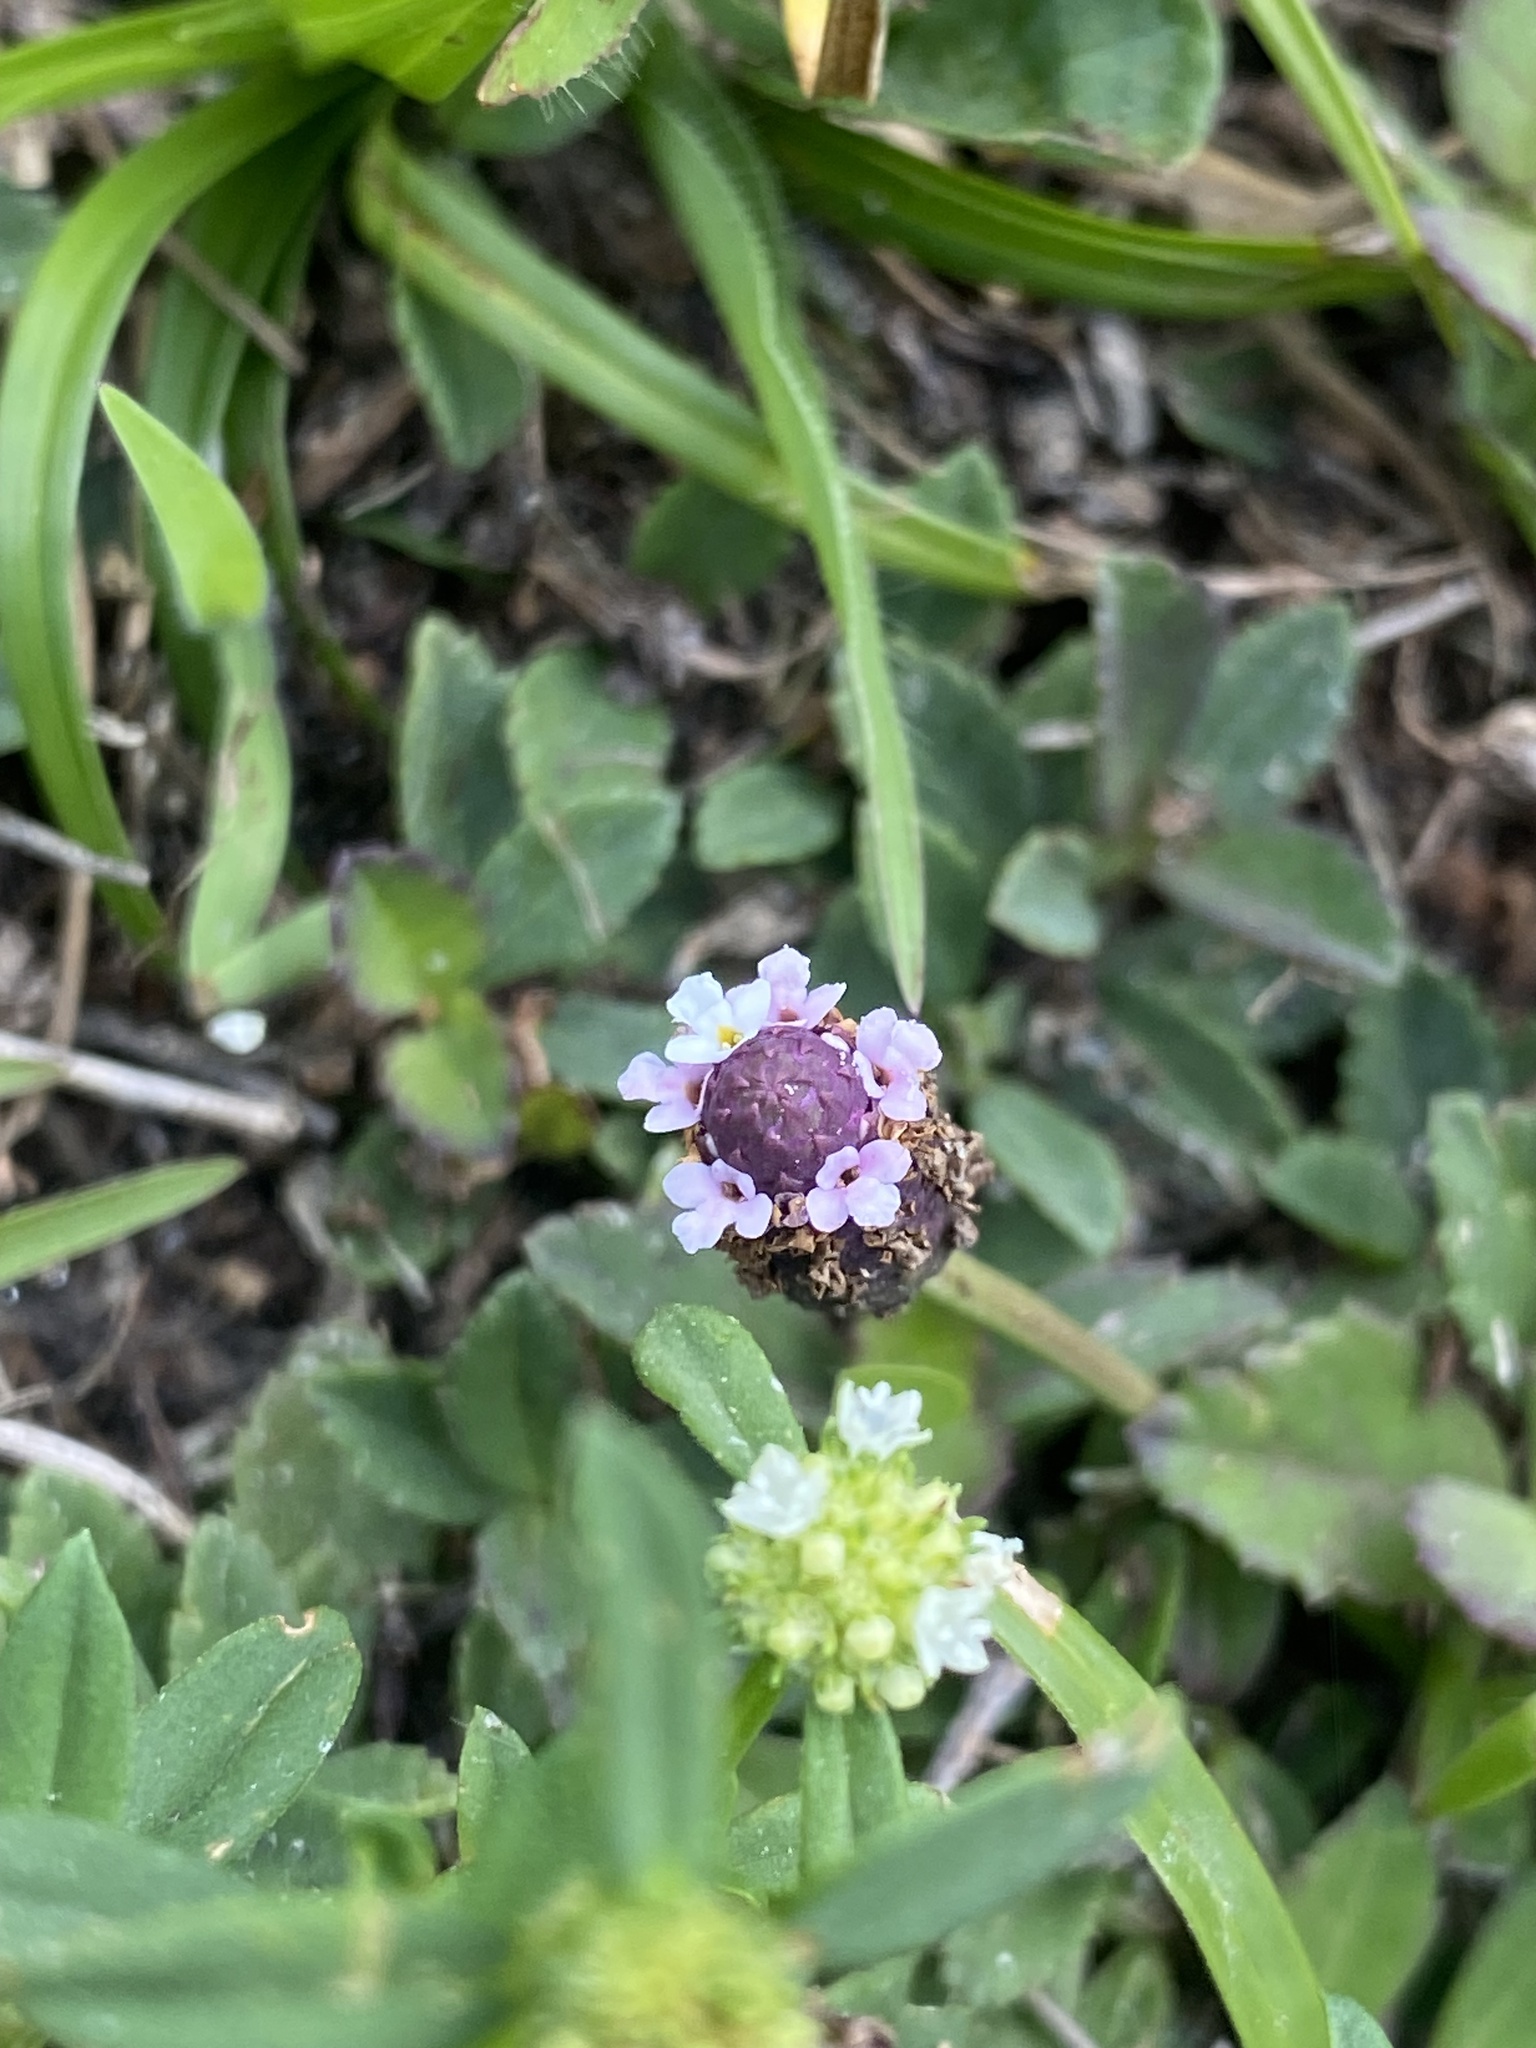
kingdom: Plantae
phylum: Tracheophyta
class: Magnoliopsida
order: Lamiales
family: Verbenaceae
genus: Phyla
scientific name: Phyla nodiflora
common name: Frogfruit
